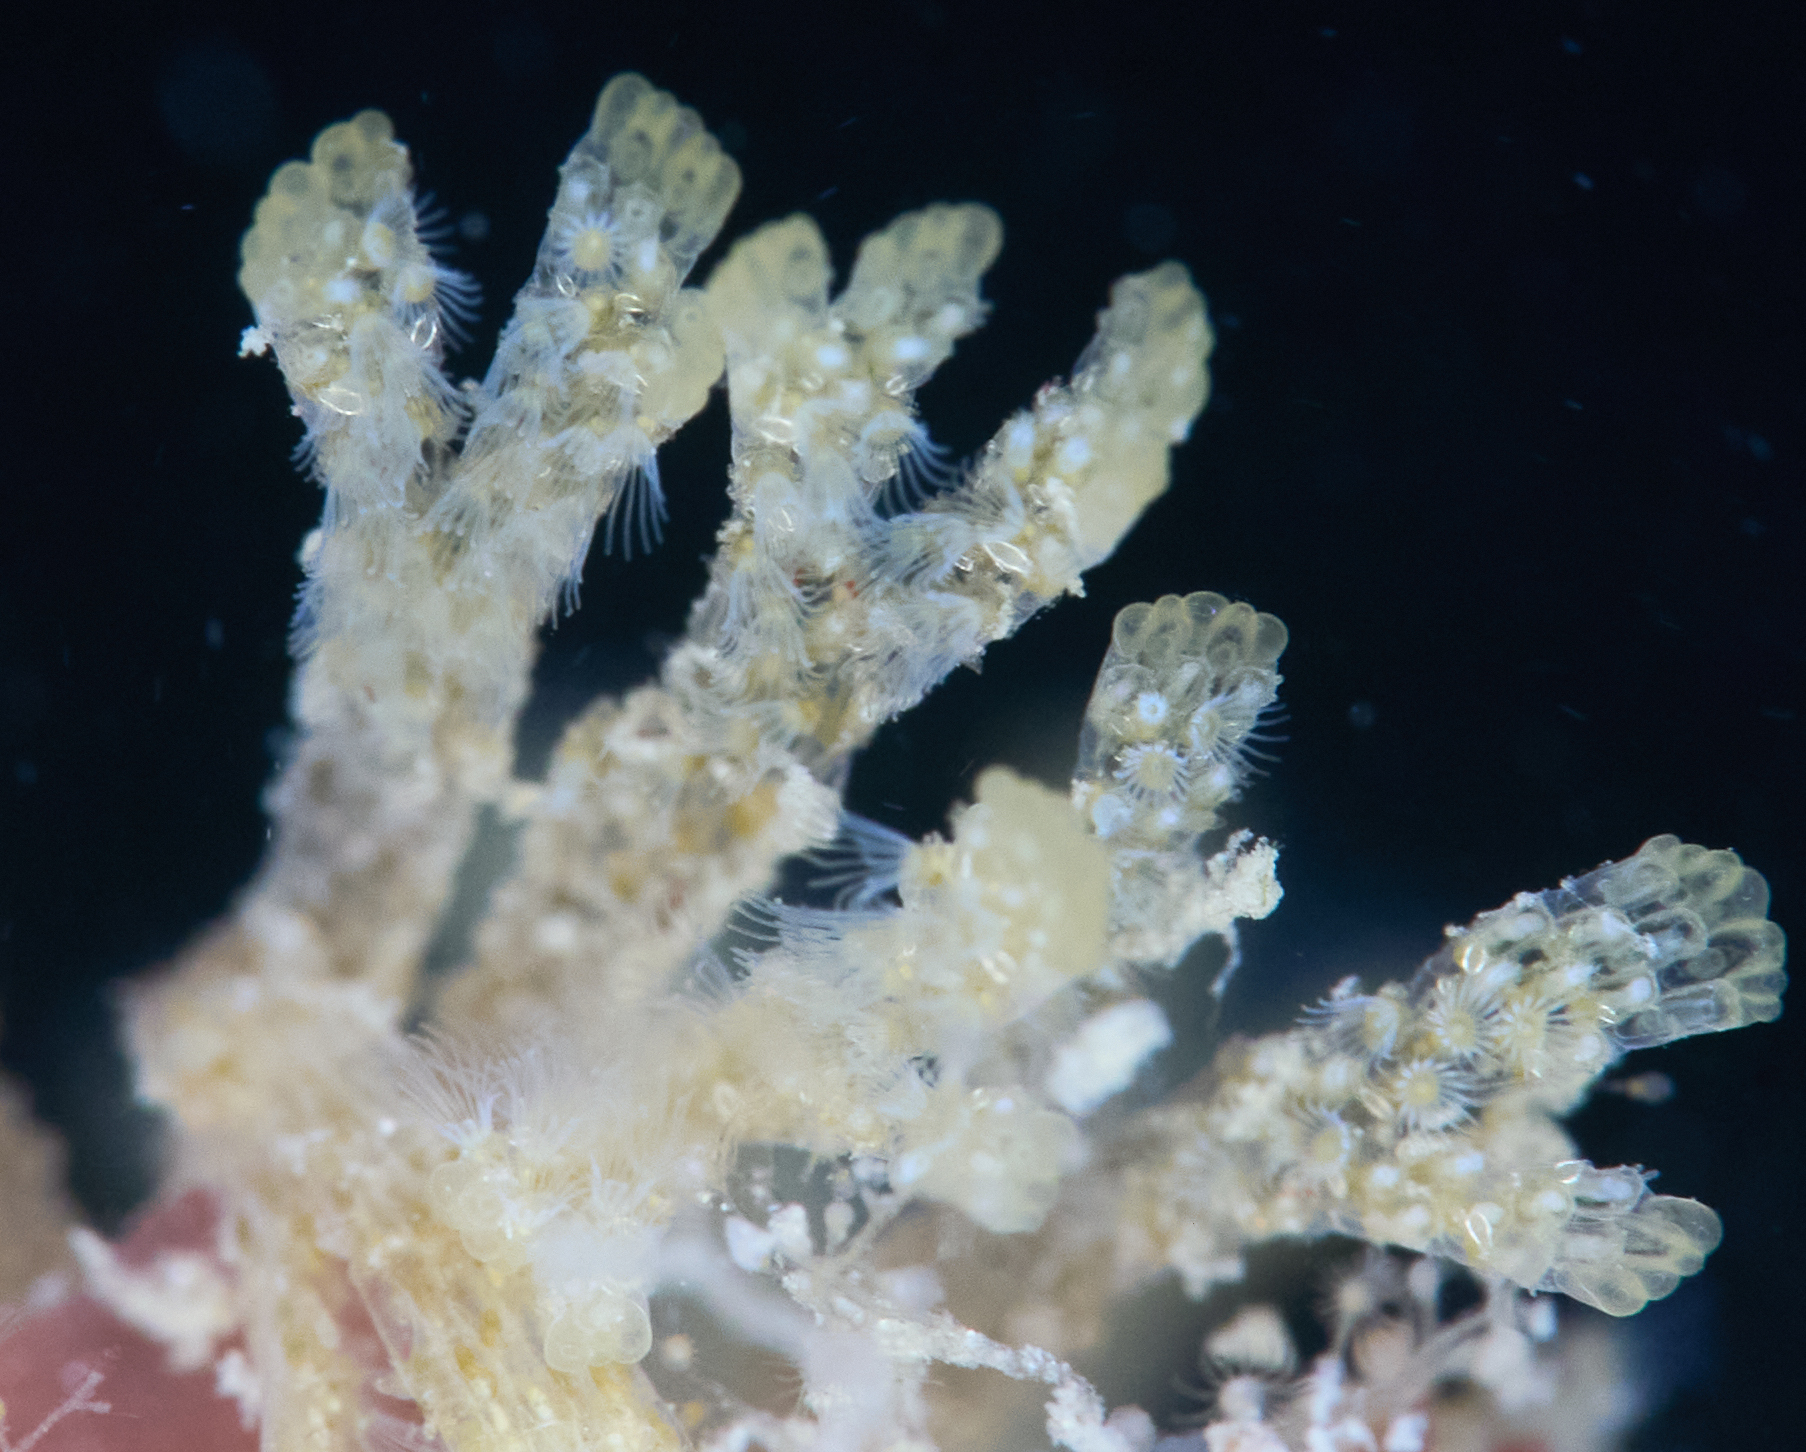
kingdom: Animalia
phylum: Bryozoa
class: Gymnolaemata
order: Cheilostomatida
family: Bugulidae
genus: Bugulina
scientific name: Bugulina flabellata
